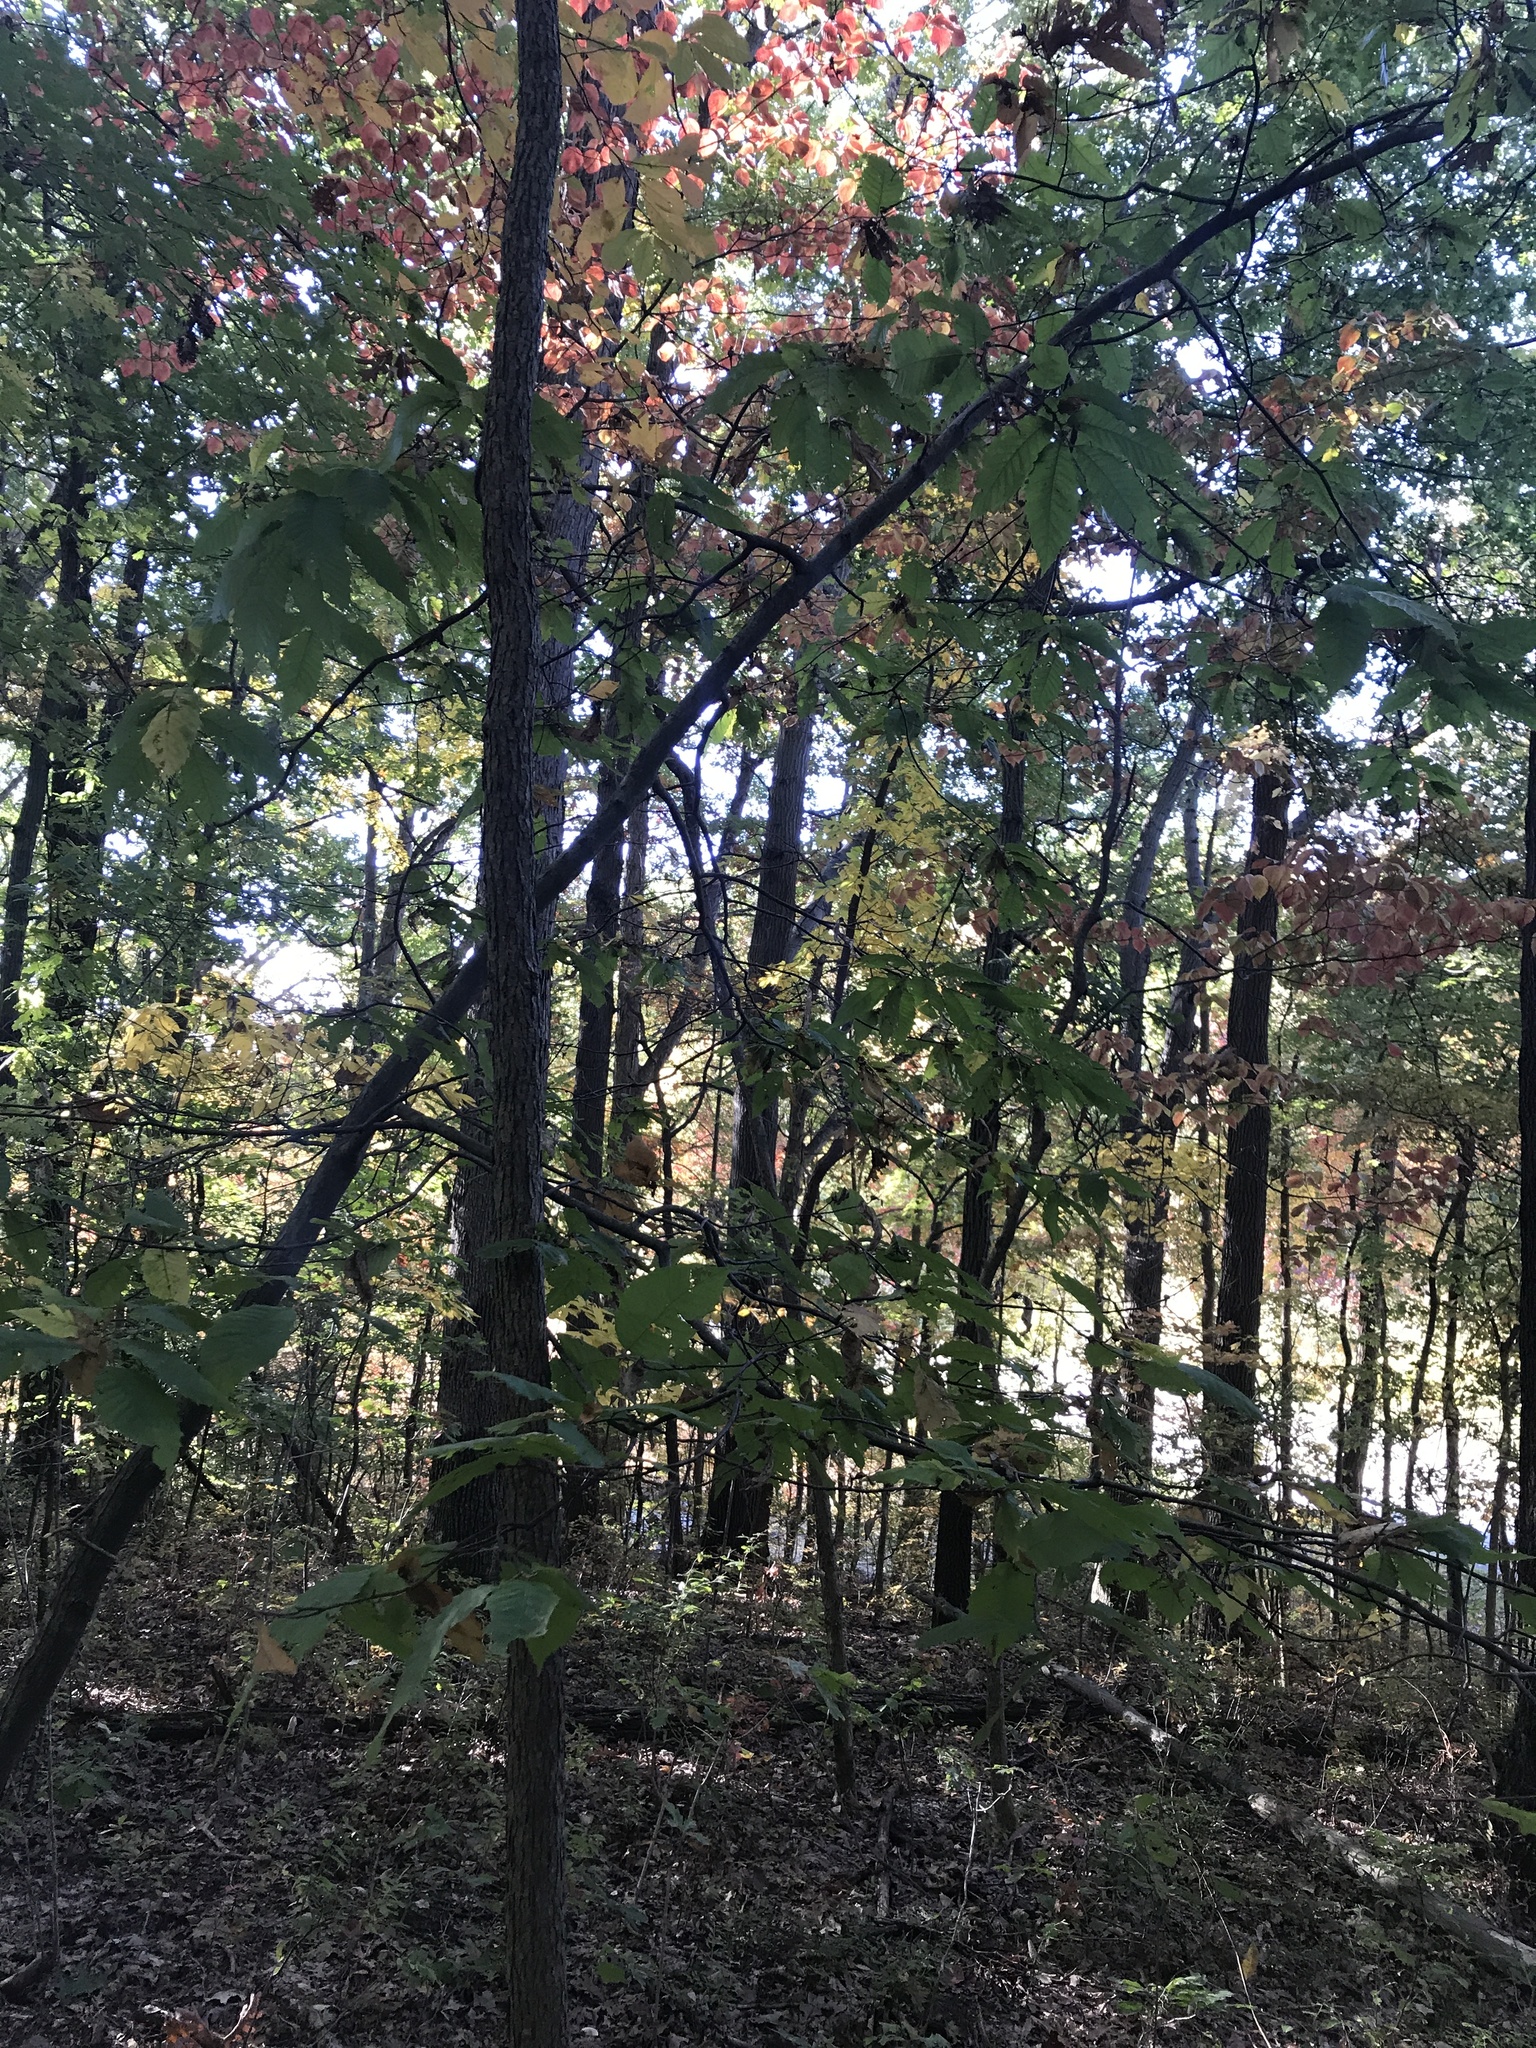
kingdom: Plantae
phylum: Tracheophyta
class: Magnoliopsida
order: Fagales
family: Fagaceae
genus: Castanea
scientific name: Castanea dentata
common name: American chestnut
